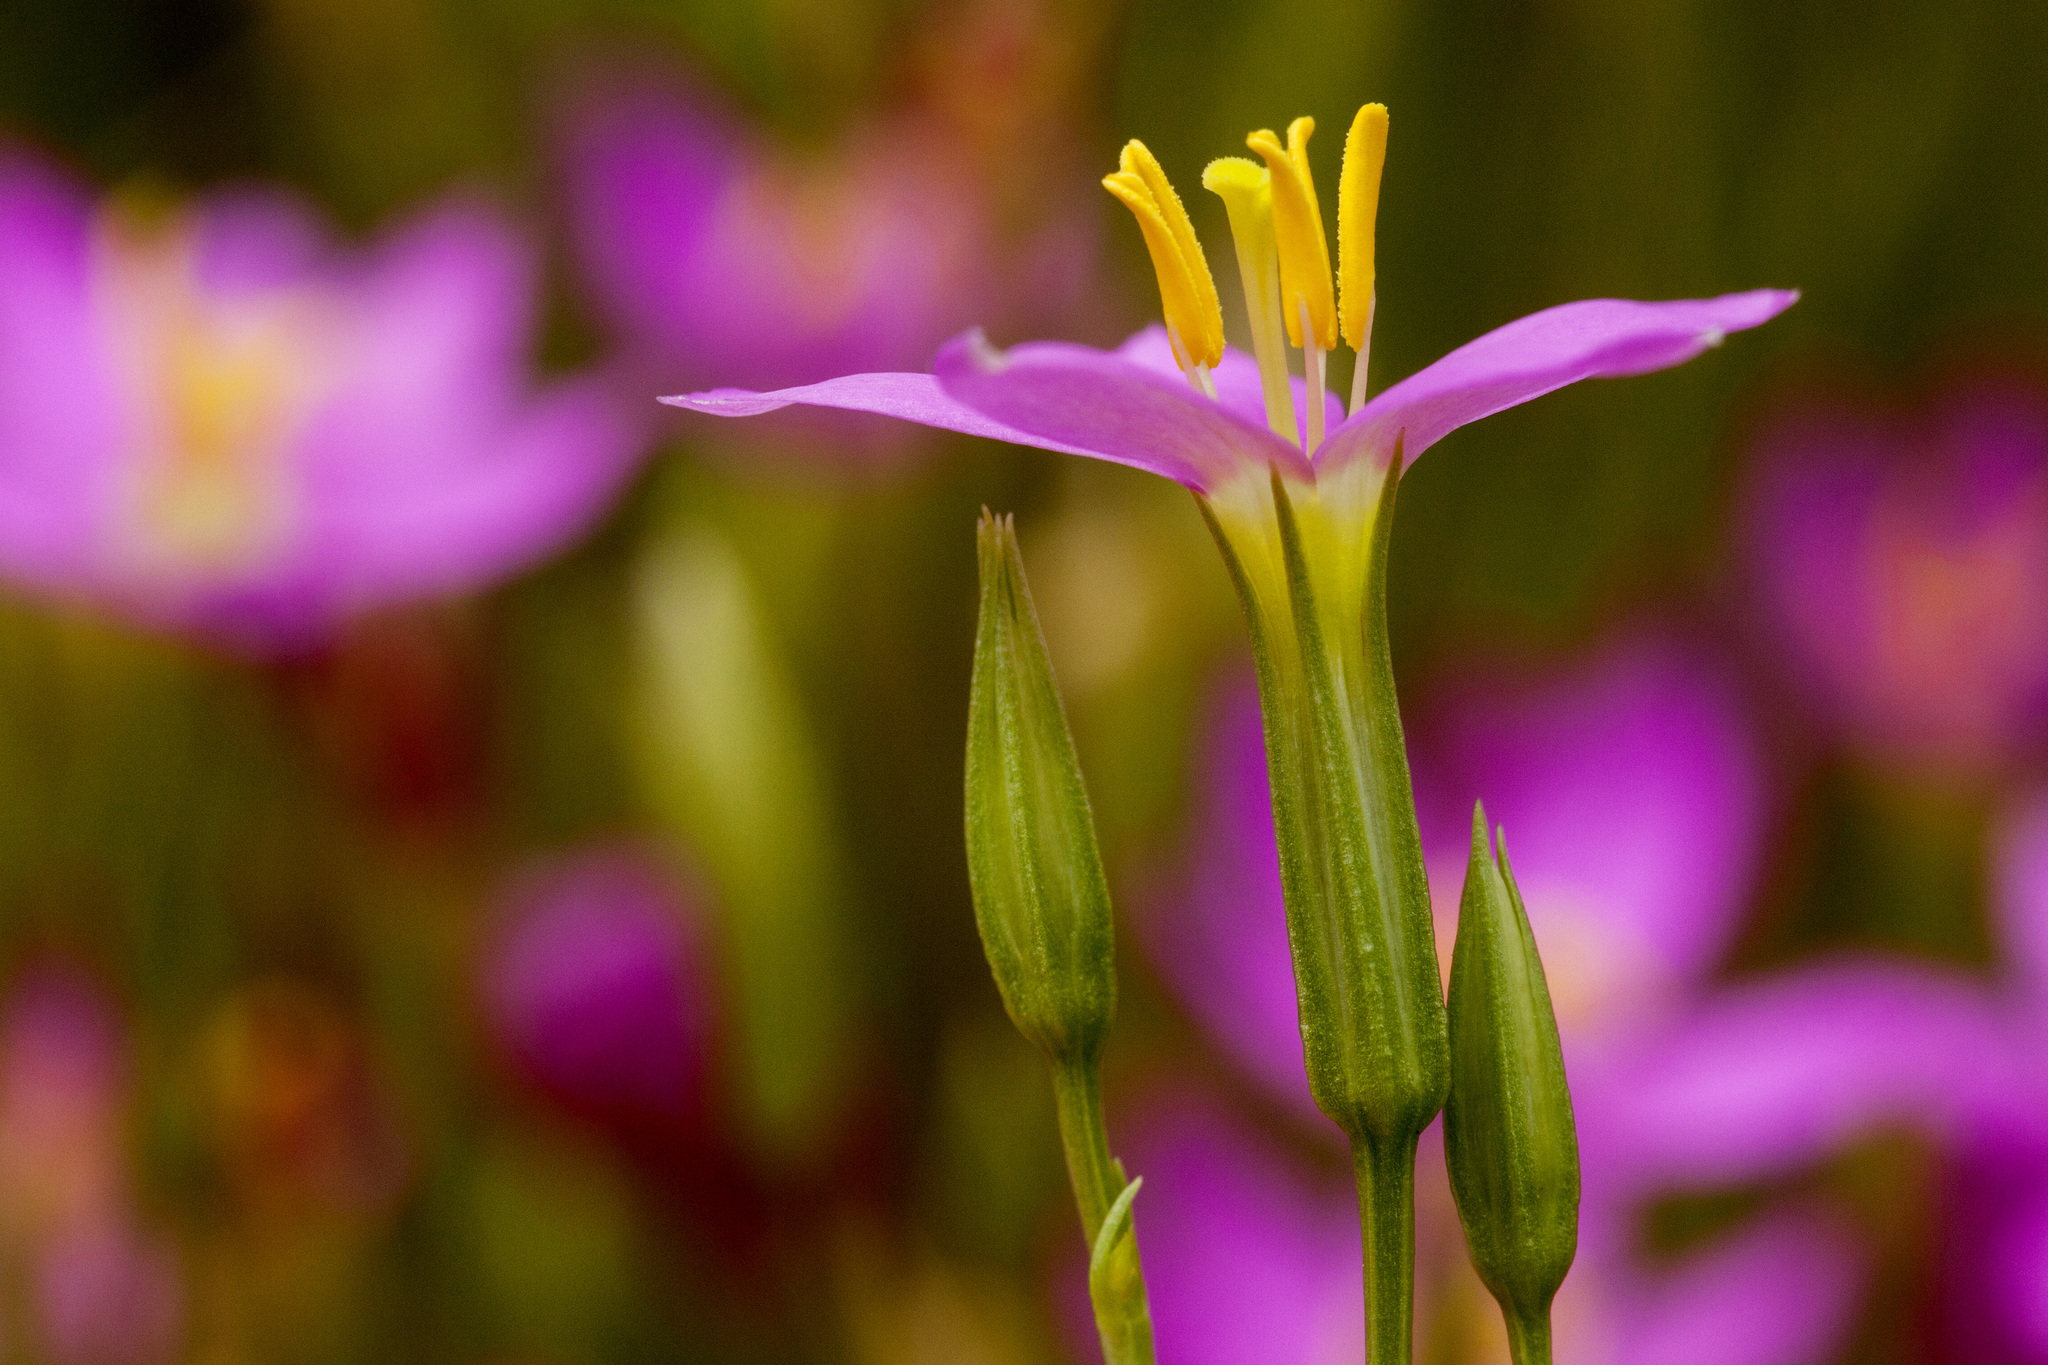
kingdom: Plantae
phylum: Tracheophyta
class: Magnoliopsida
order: Gentianales
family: Gentianaceae
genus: Zeltnera
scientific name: Zeltnera arizonica
